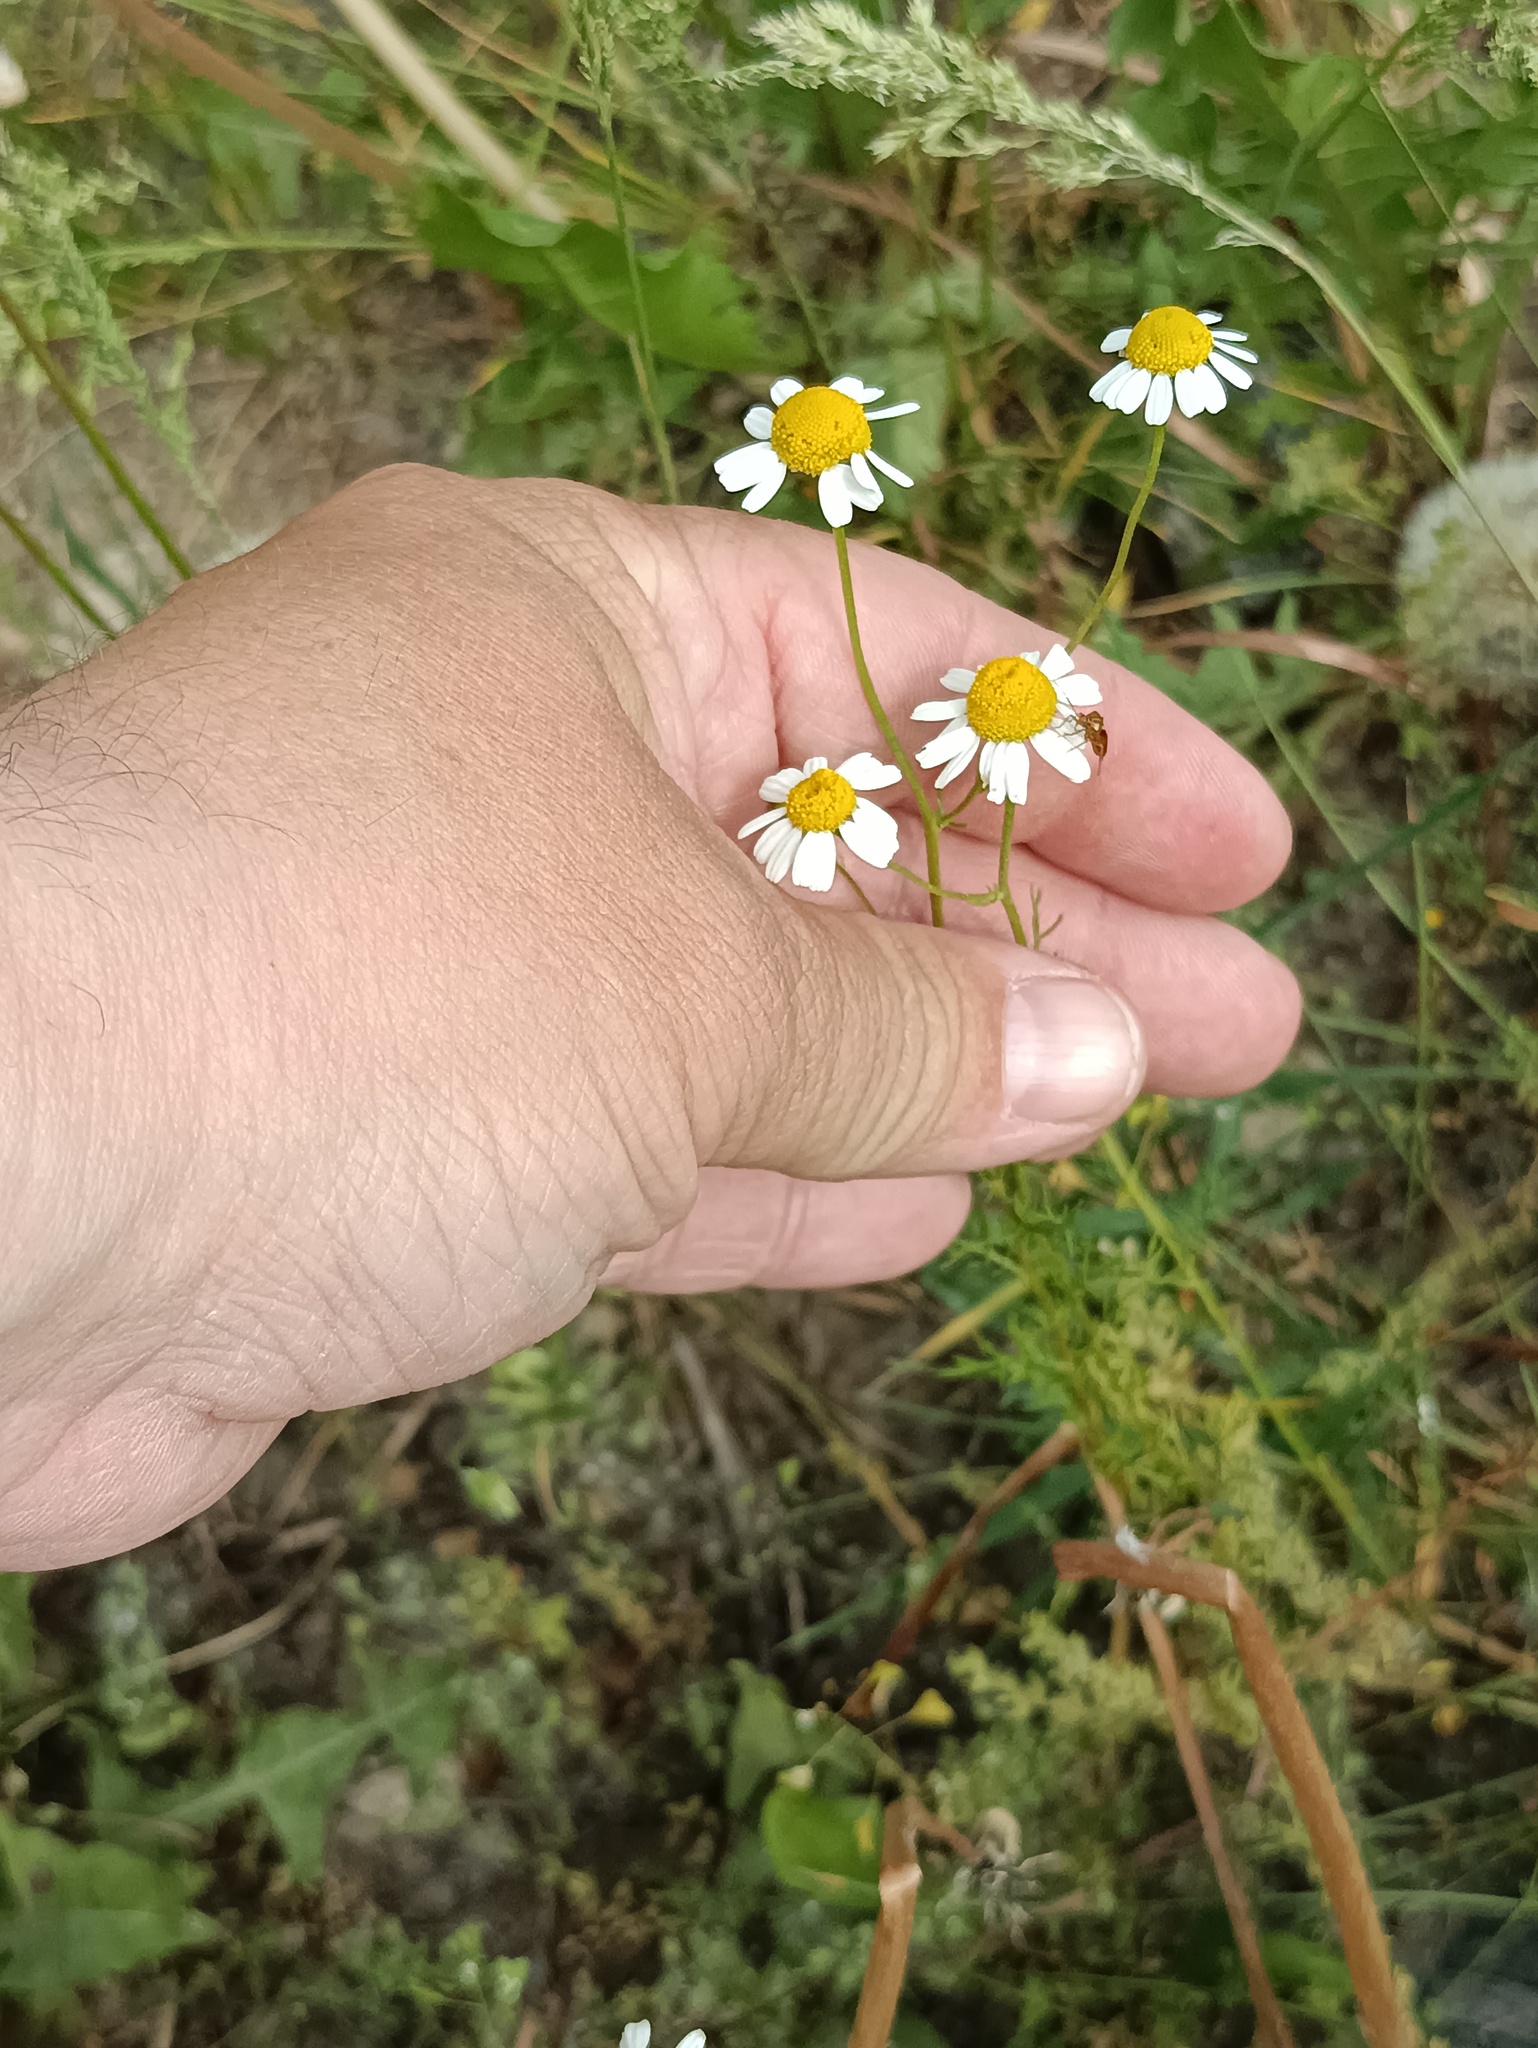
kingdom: Plantae
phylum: Tracheophyta
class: Magnoliopsida
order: Asterales
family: Asteraceae
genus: Tripleurospermum
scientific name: Tripleurospermum inodorum
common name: Scentless mayweed
